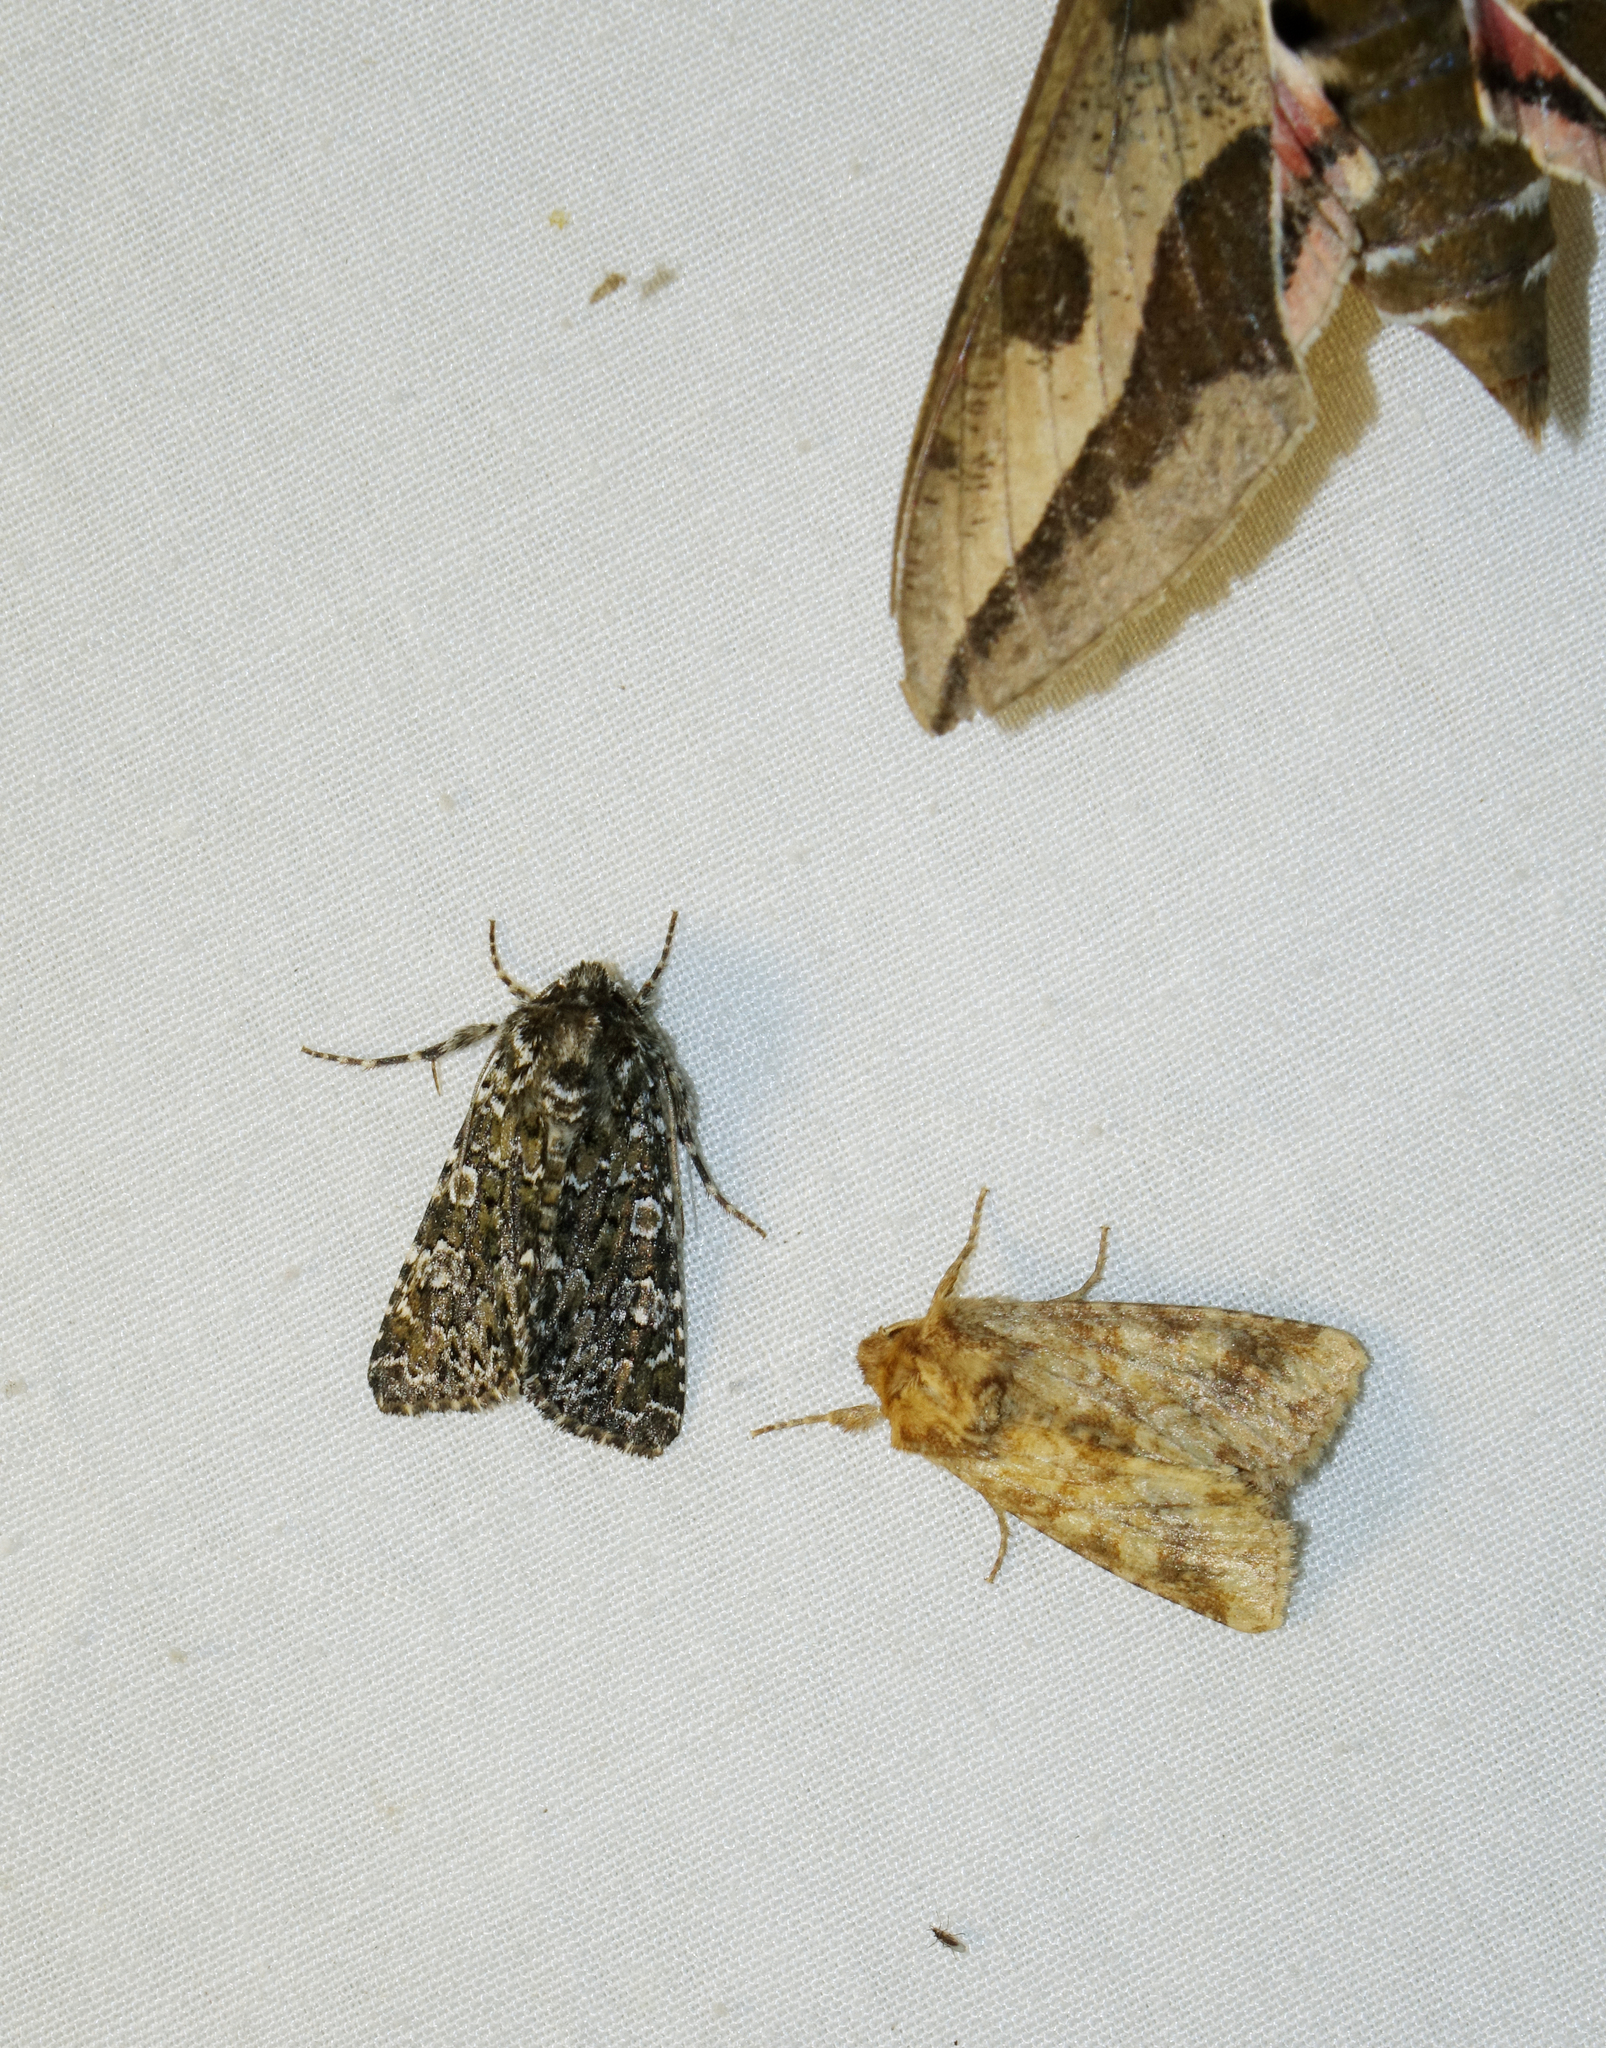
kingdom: Animalia
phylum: Arthropoda
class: Insecta
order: Lepidoptera
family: Noctuidae
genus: Hadena
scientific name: Hadena magnolii
